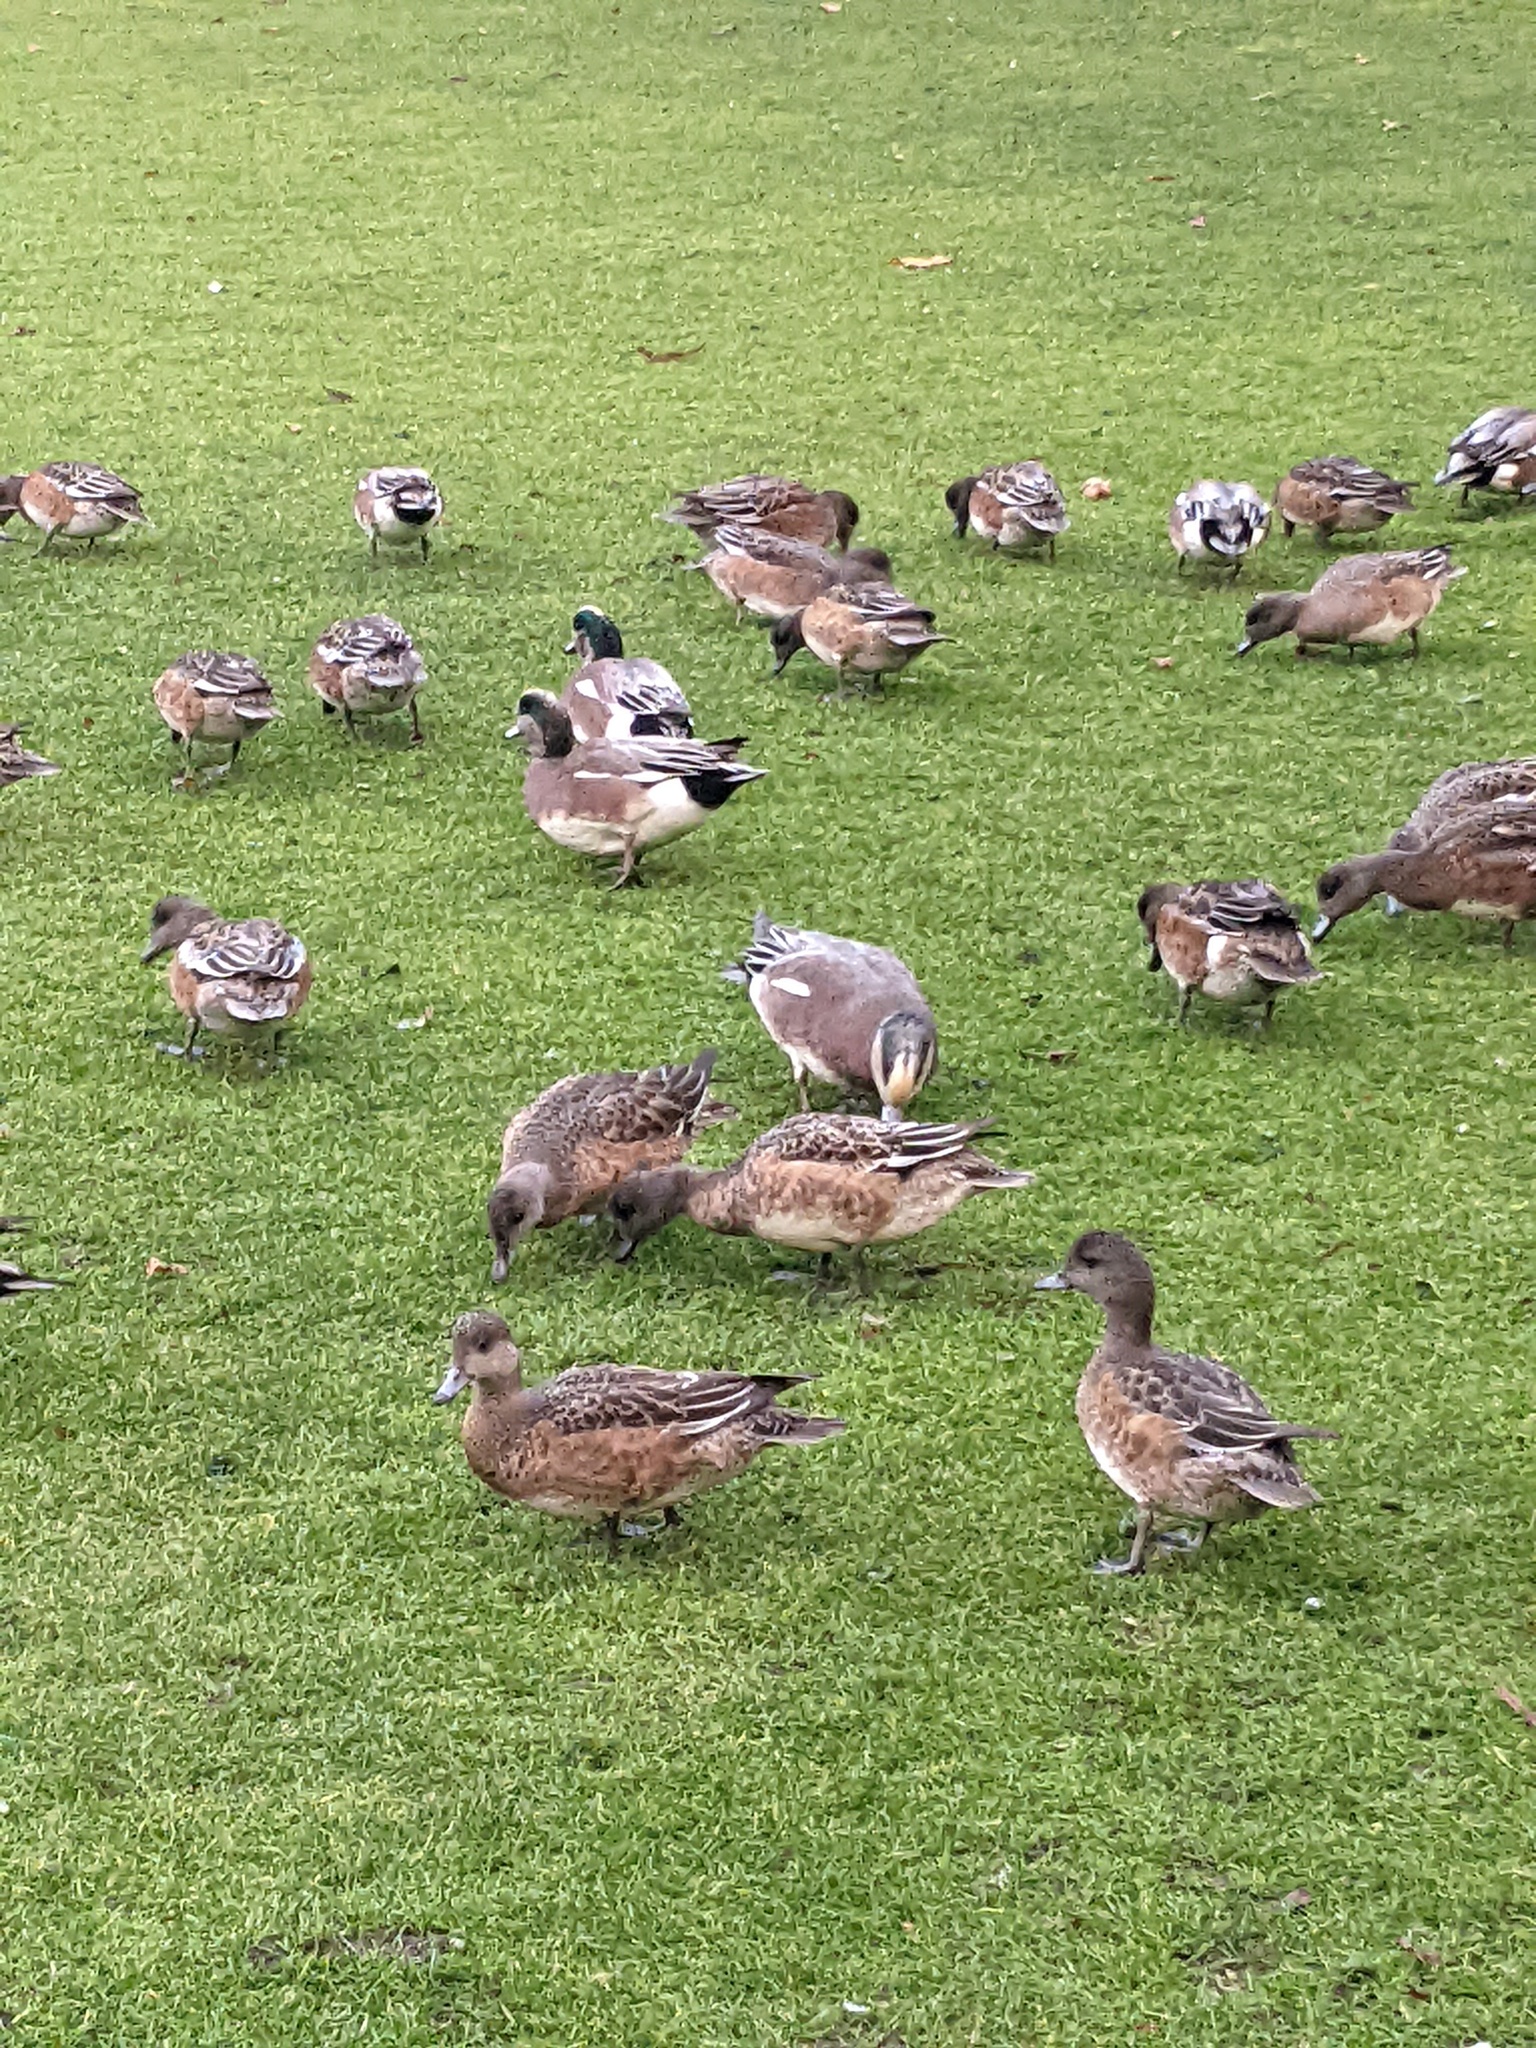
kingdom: Animalia
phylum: Chordata
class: Aves
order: Anseriformes
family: Anatidae
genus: Mareca
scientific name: Mareca americana
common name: American wigeon
